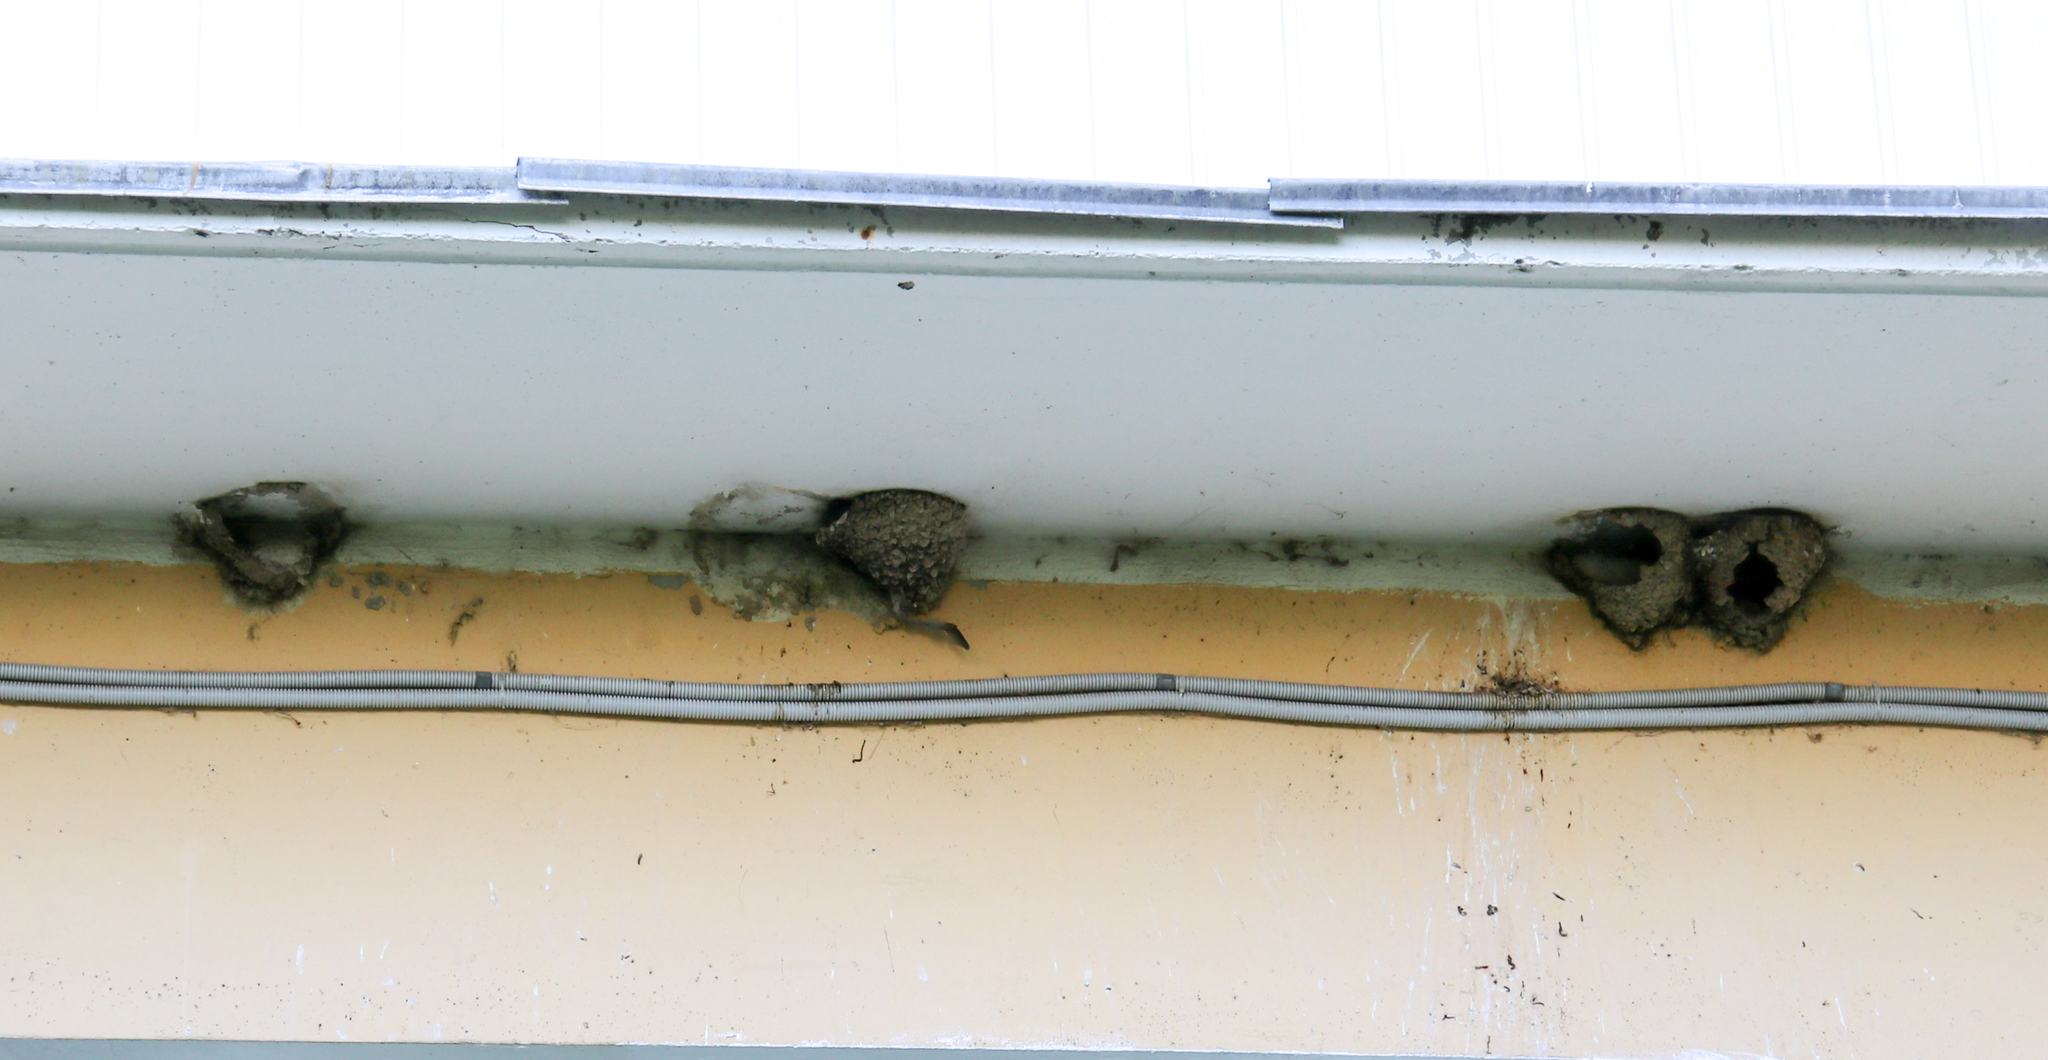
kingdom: Animalia
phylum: Chordata
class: Aves
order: Passeriformes
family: Hirundinidae
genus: Delichon
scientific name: Delichon urbicum
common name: Common house martin
